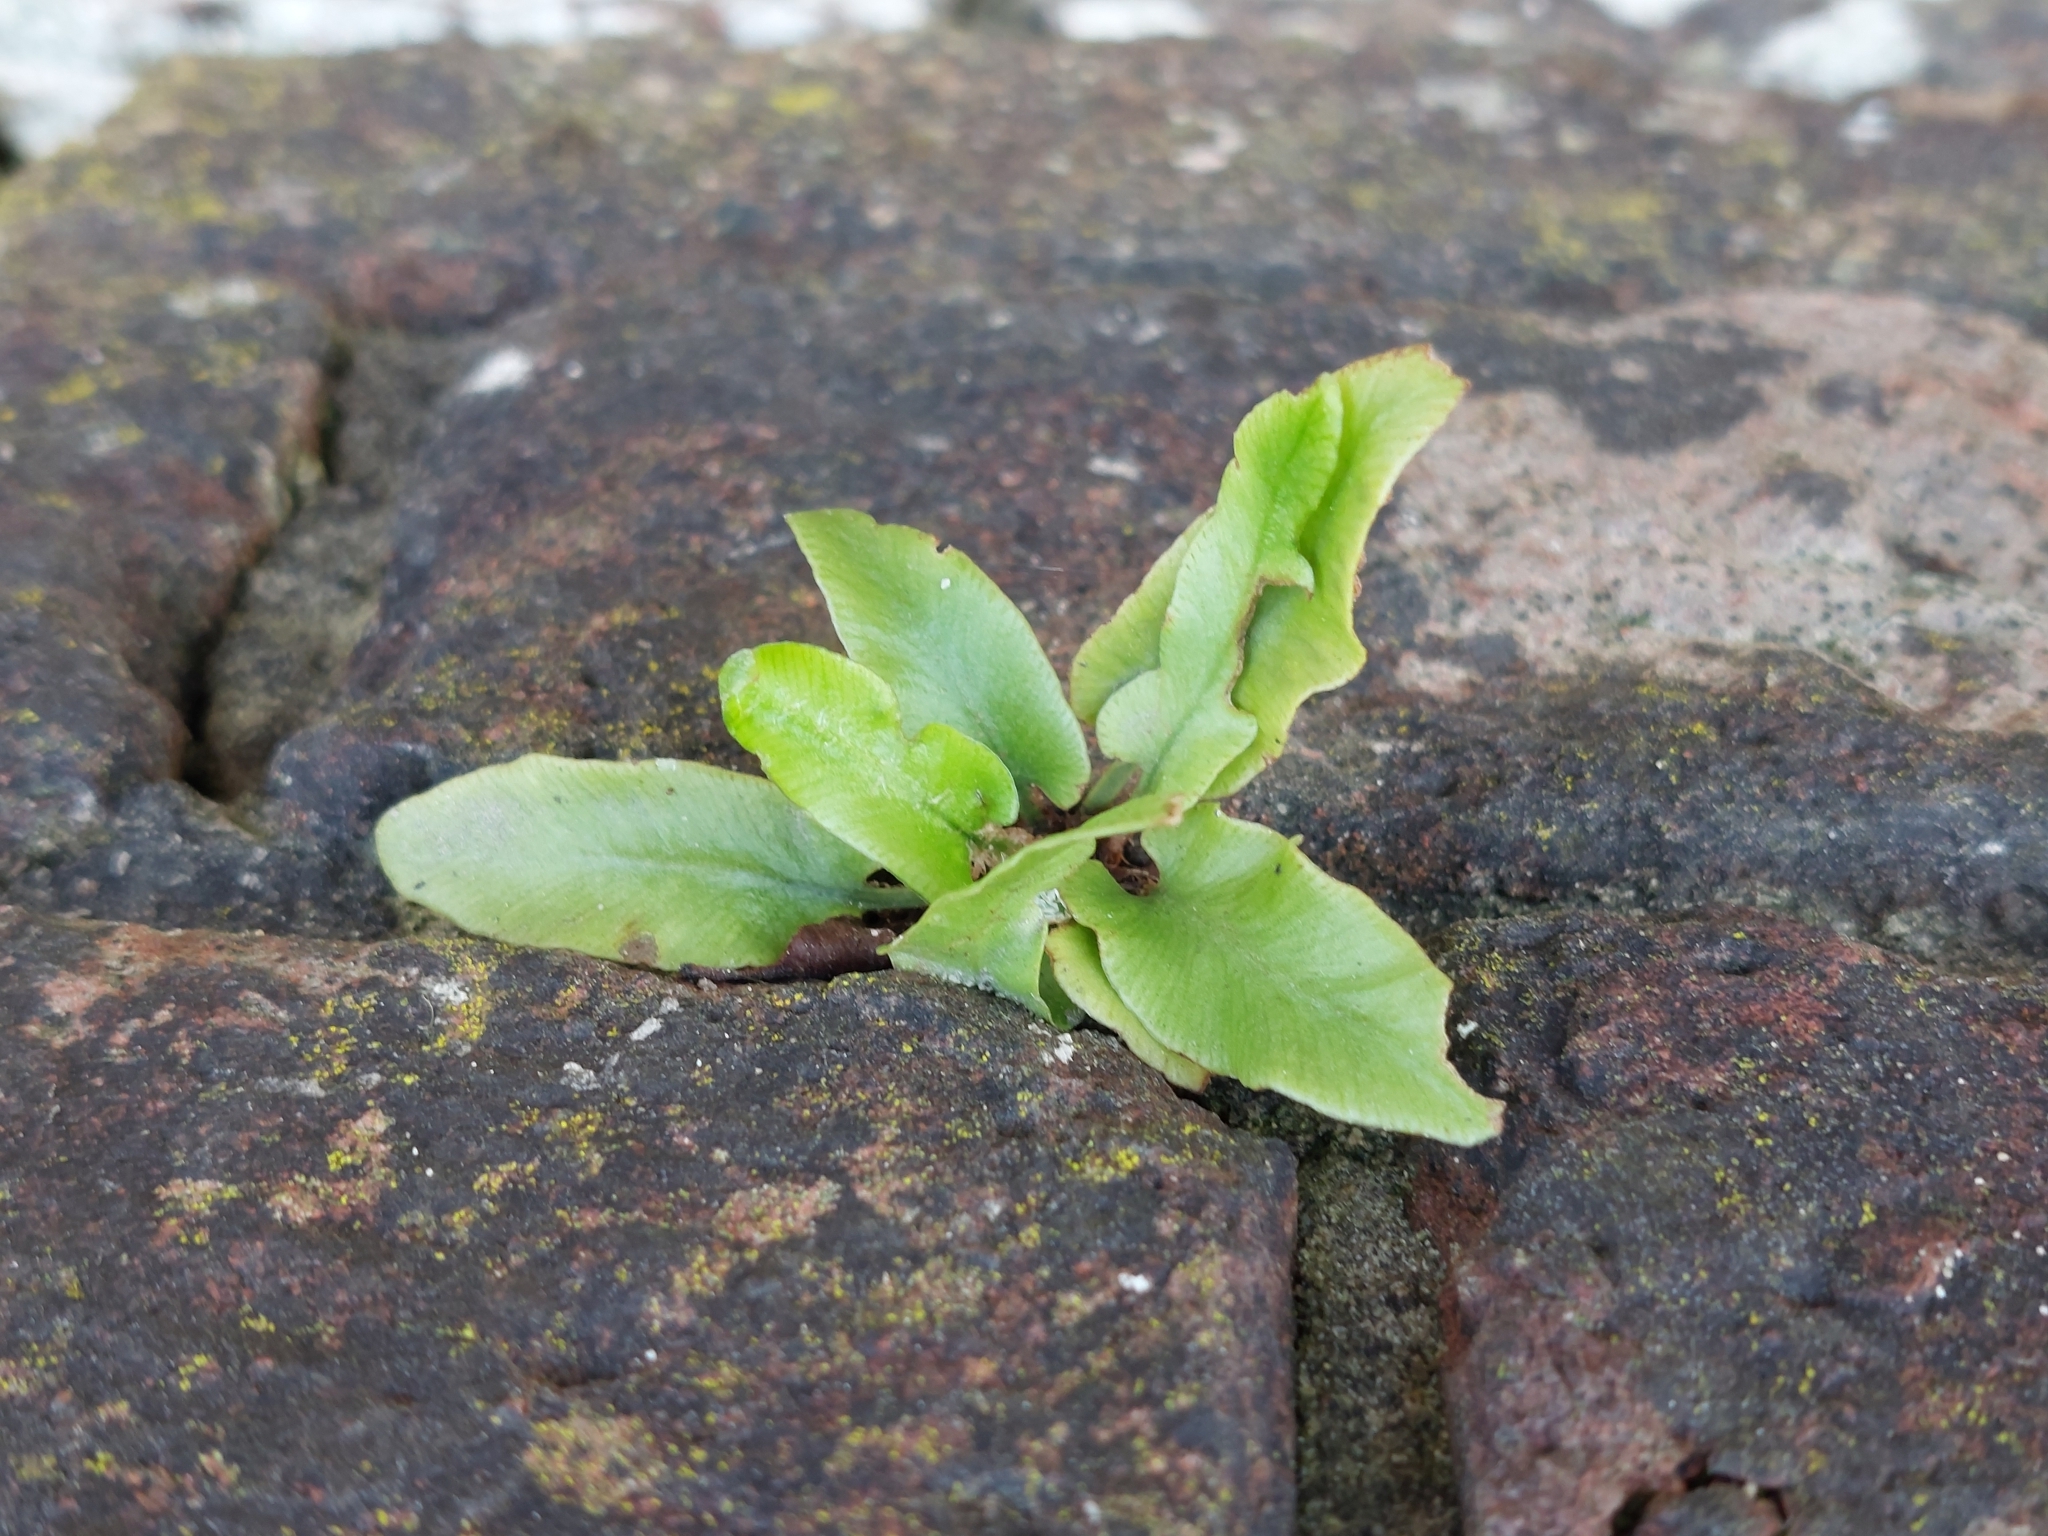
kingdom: Plantae
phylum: Tracheophyta
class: Polypodiopsida
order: Polypodiales
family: Aspleniaceae
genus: Asplenium
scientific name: Asplenium scolopendrium
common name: Hart's-tongue fern
